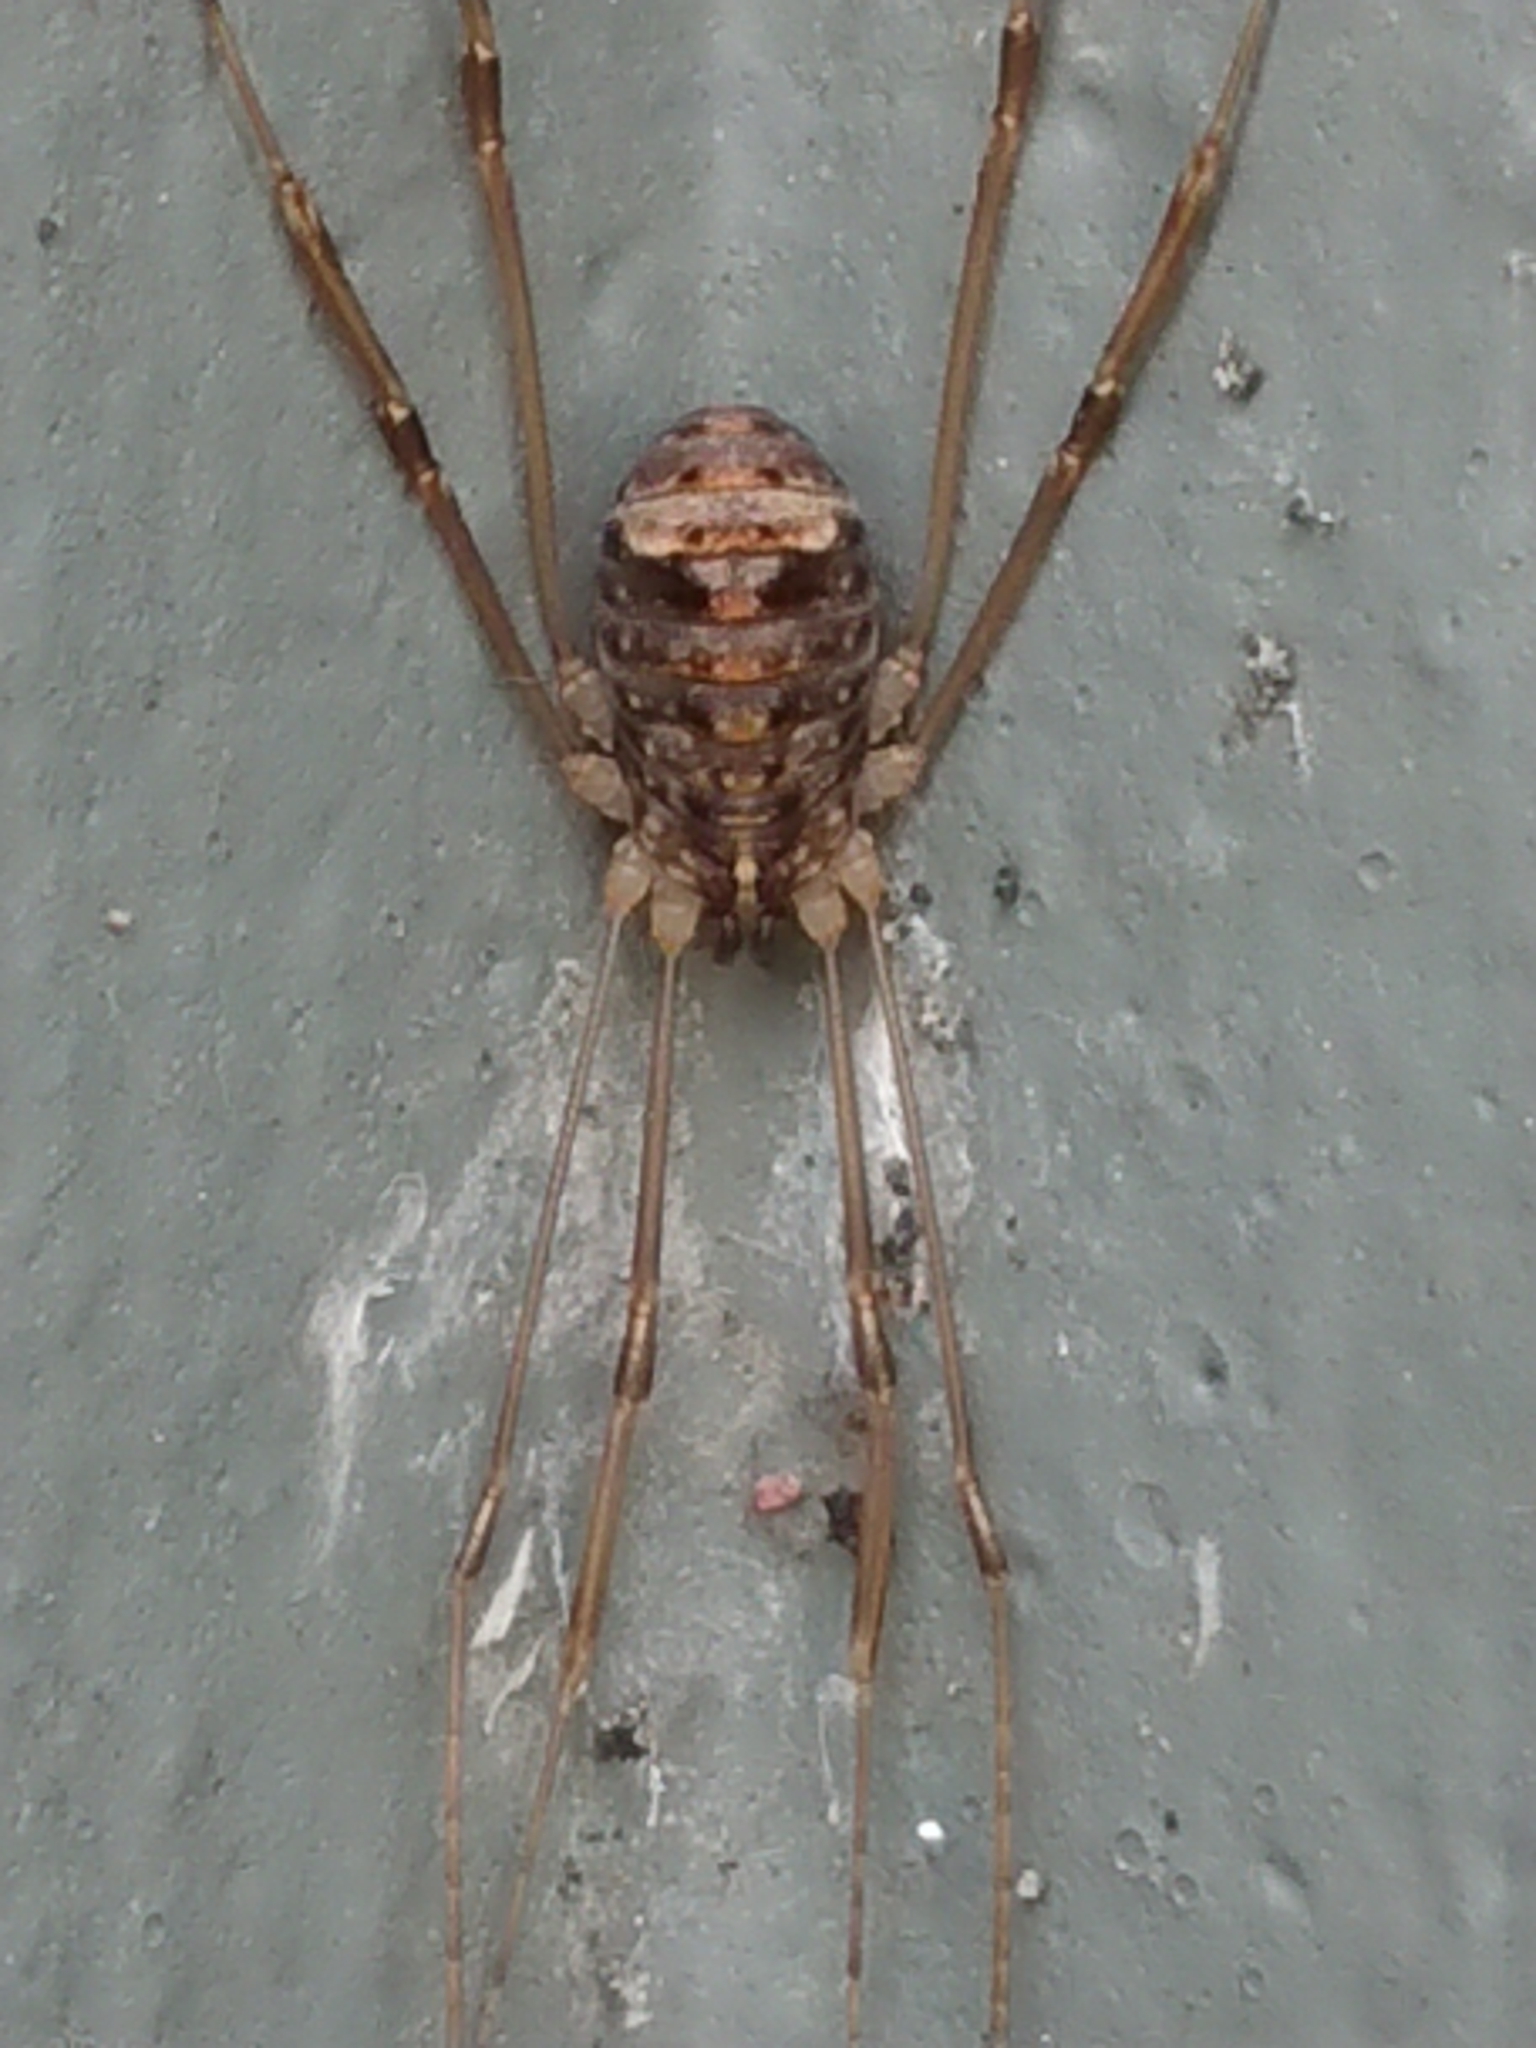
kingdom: Animalia
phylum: Arthropoda
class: Arachnida
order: Opiliones
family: Sclerosomatidae
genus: Nelima
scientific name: Nelima doriae
